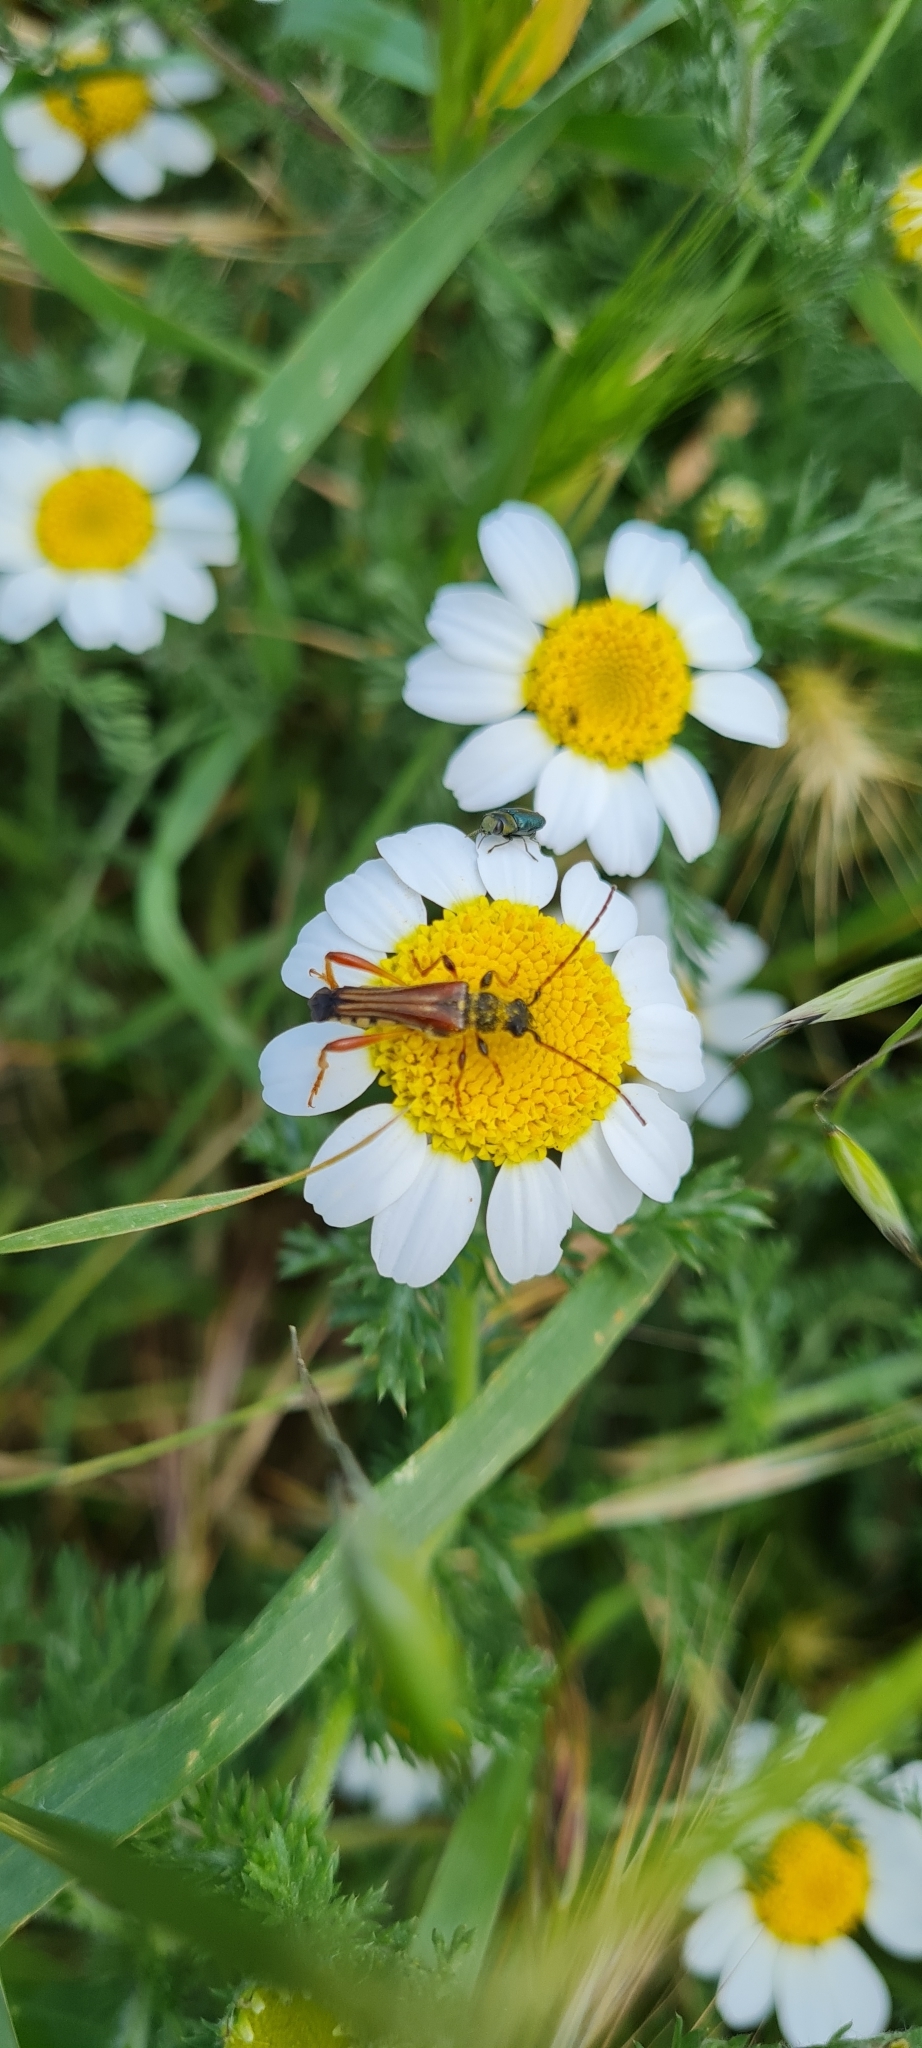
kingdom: Animalia
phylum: Arthropoda
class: Insecta
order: Coleoptera
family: Cerambycidae
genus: Stenopterus
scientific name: Stenopterus rufus
